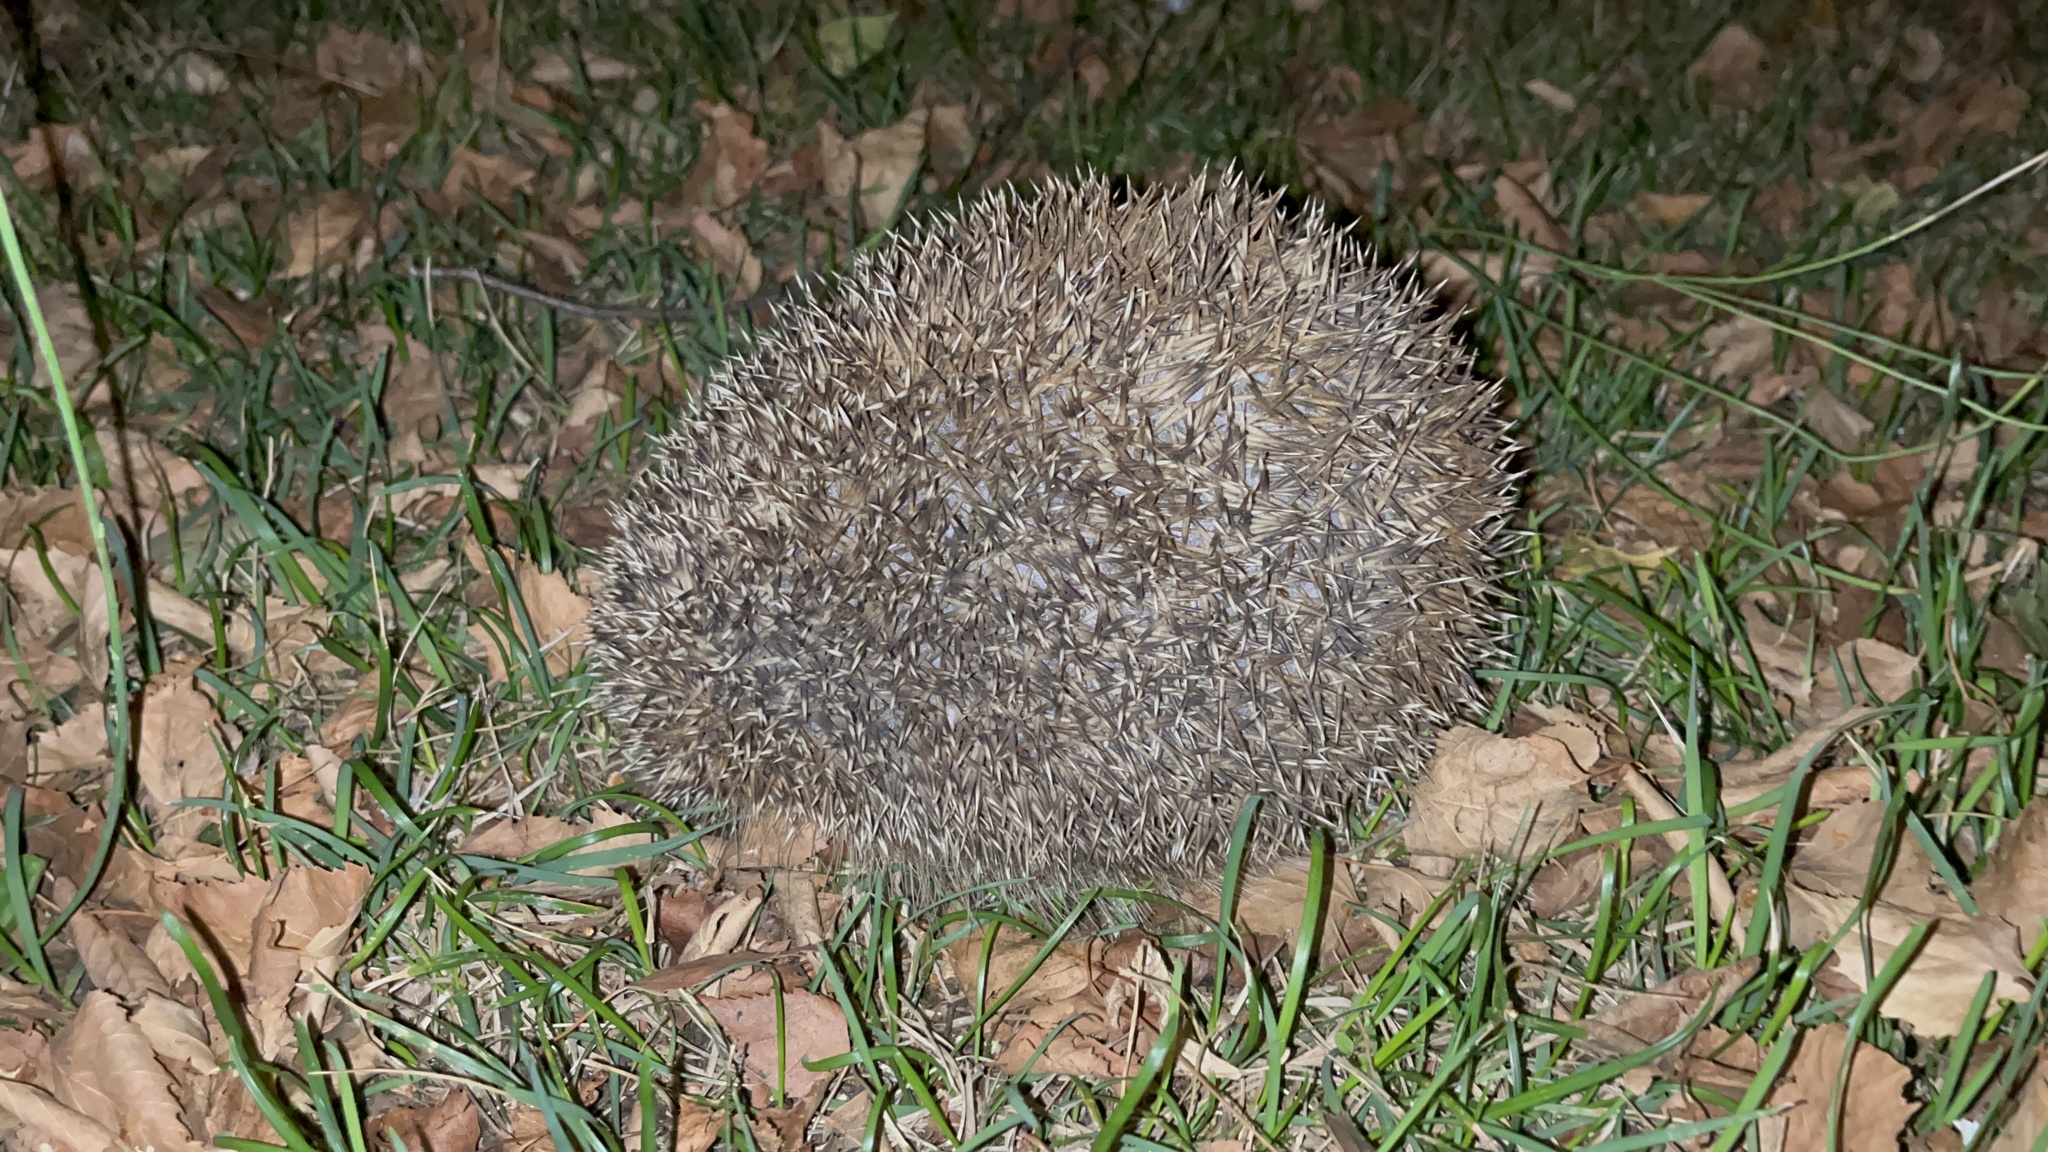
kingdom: Animalia
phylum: Chordata
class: Mammalia
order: Erinaceomorpha
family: Erinaceidae
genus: Erinaceus
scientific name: Erinaceus europaeus
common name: West european hedgehog
